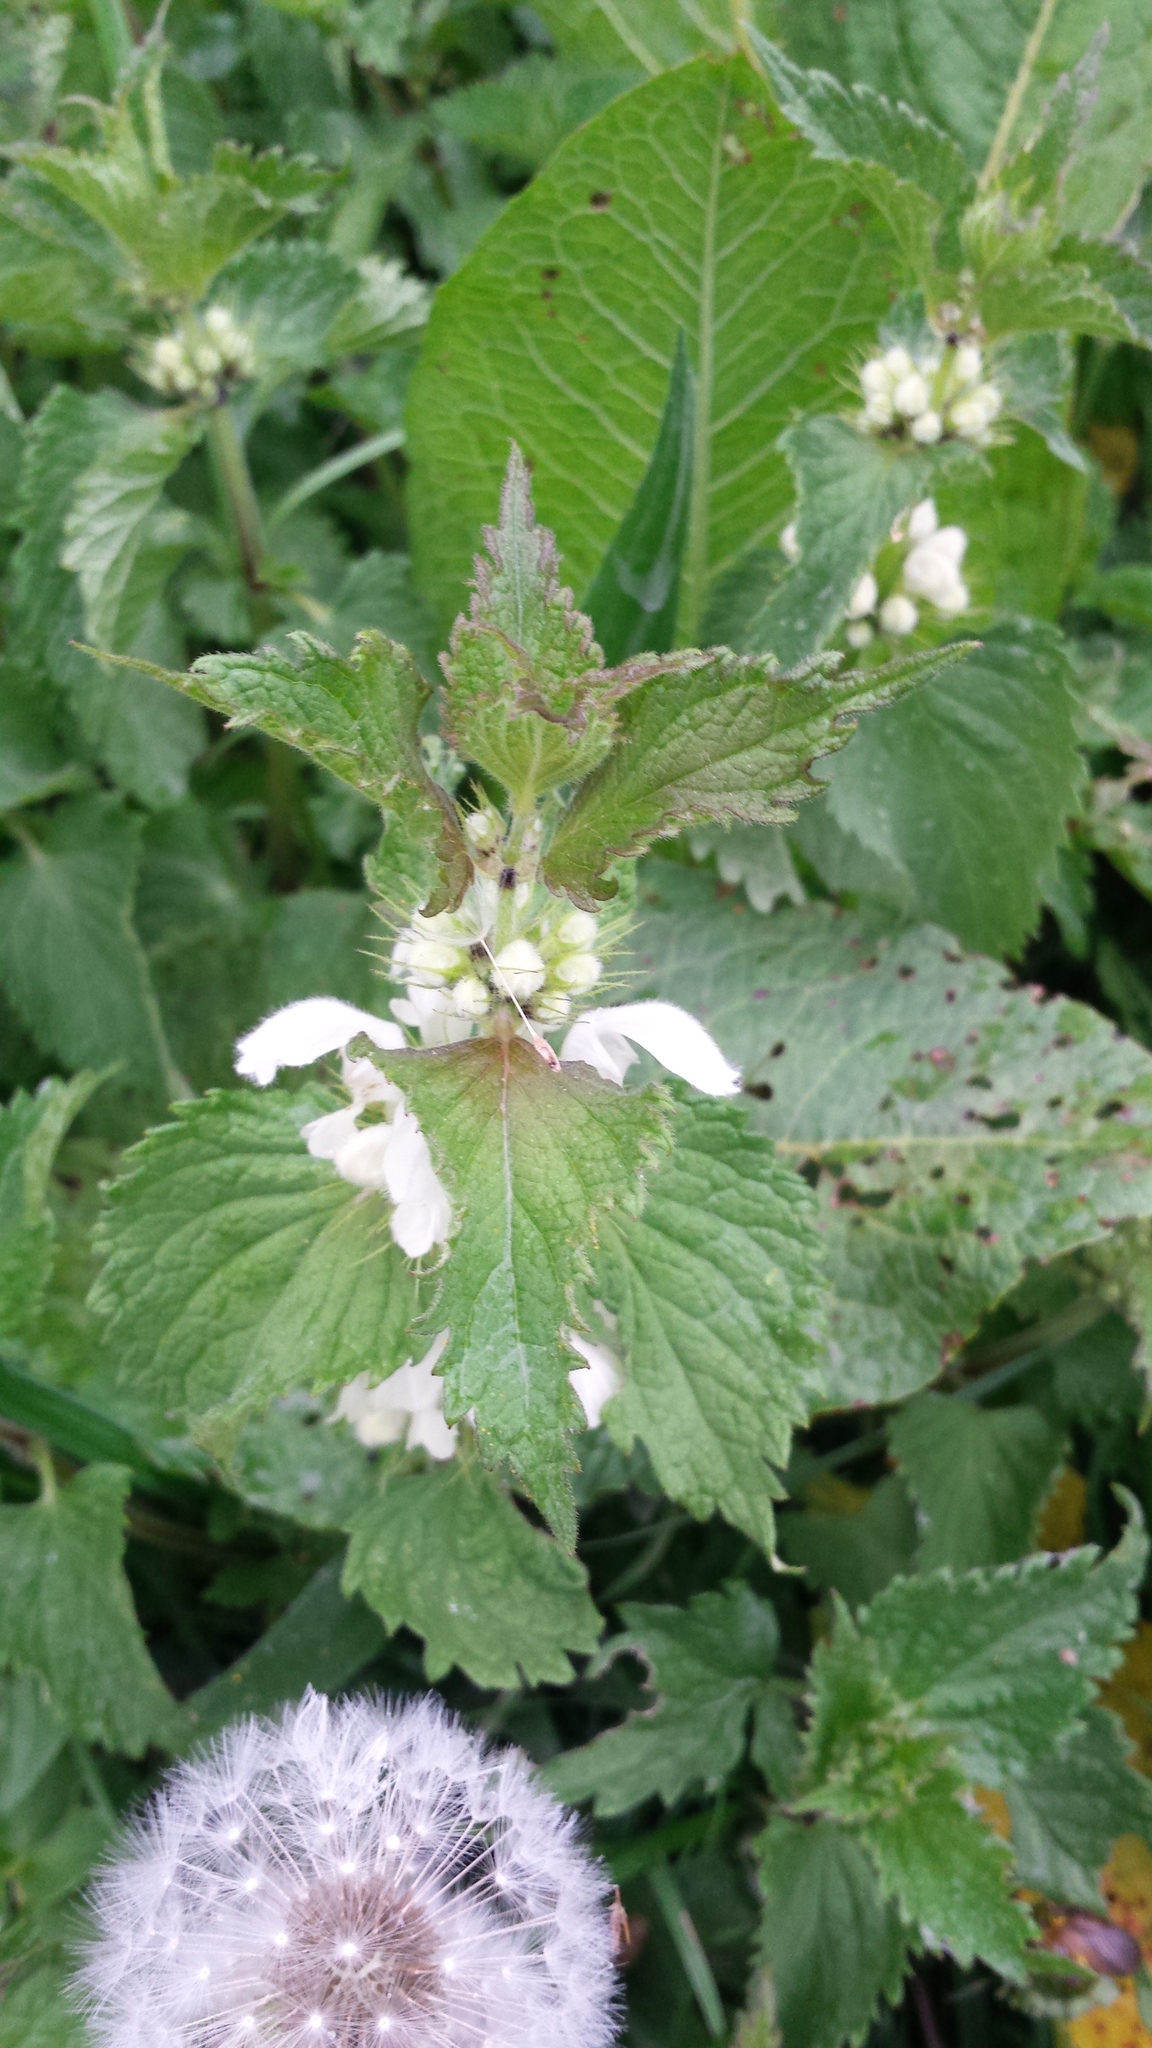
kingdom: Plantae
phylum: Tracheophyta
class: Magnoliopsida
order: Lamiales
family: Lamiaceae
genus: Lamium
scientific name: Lamium album
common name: White dead-nettle
